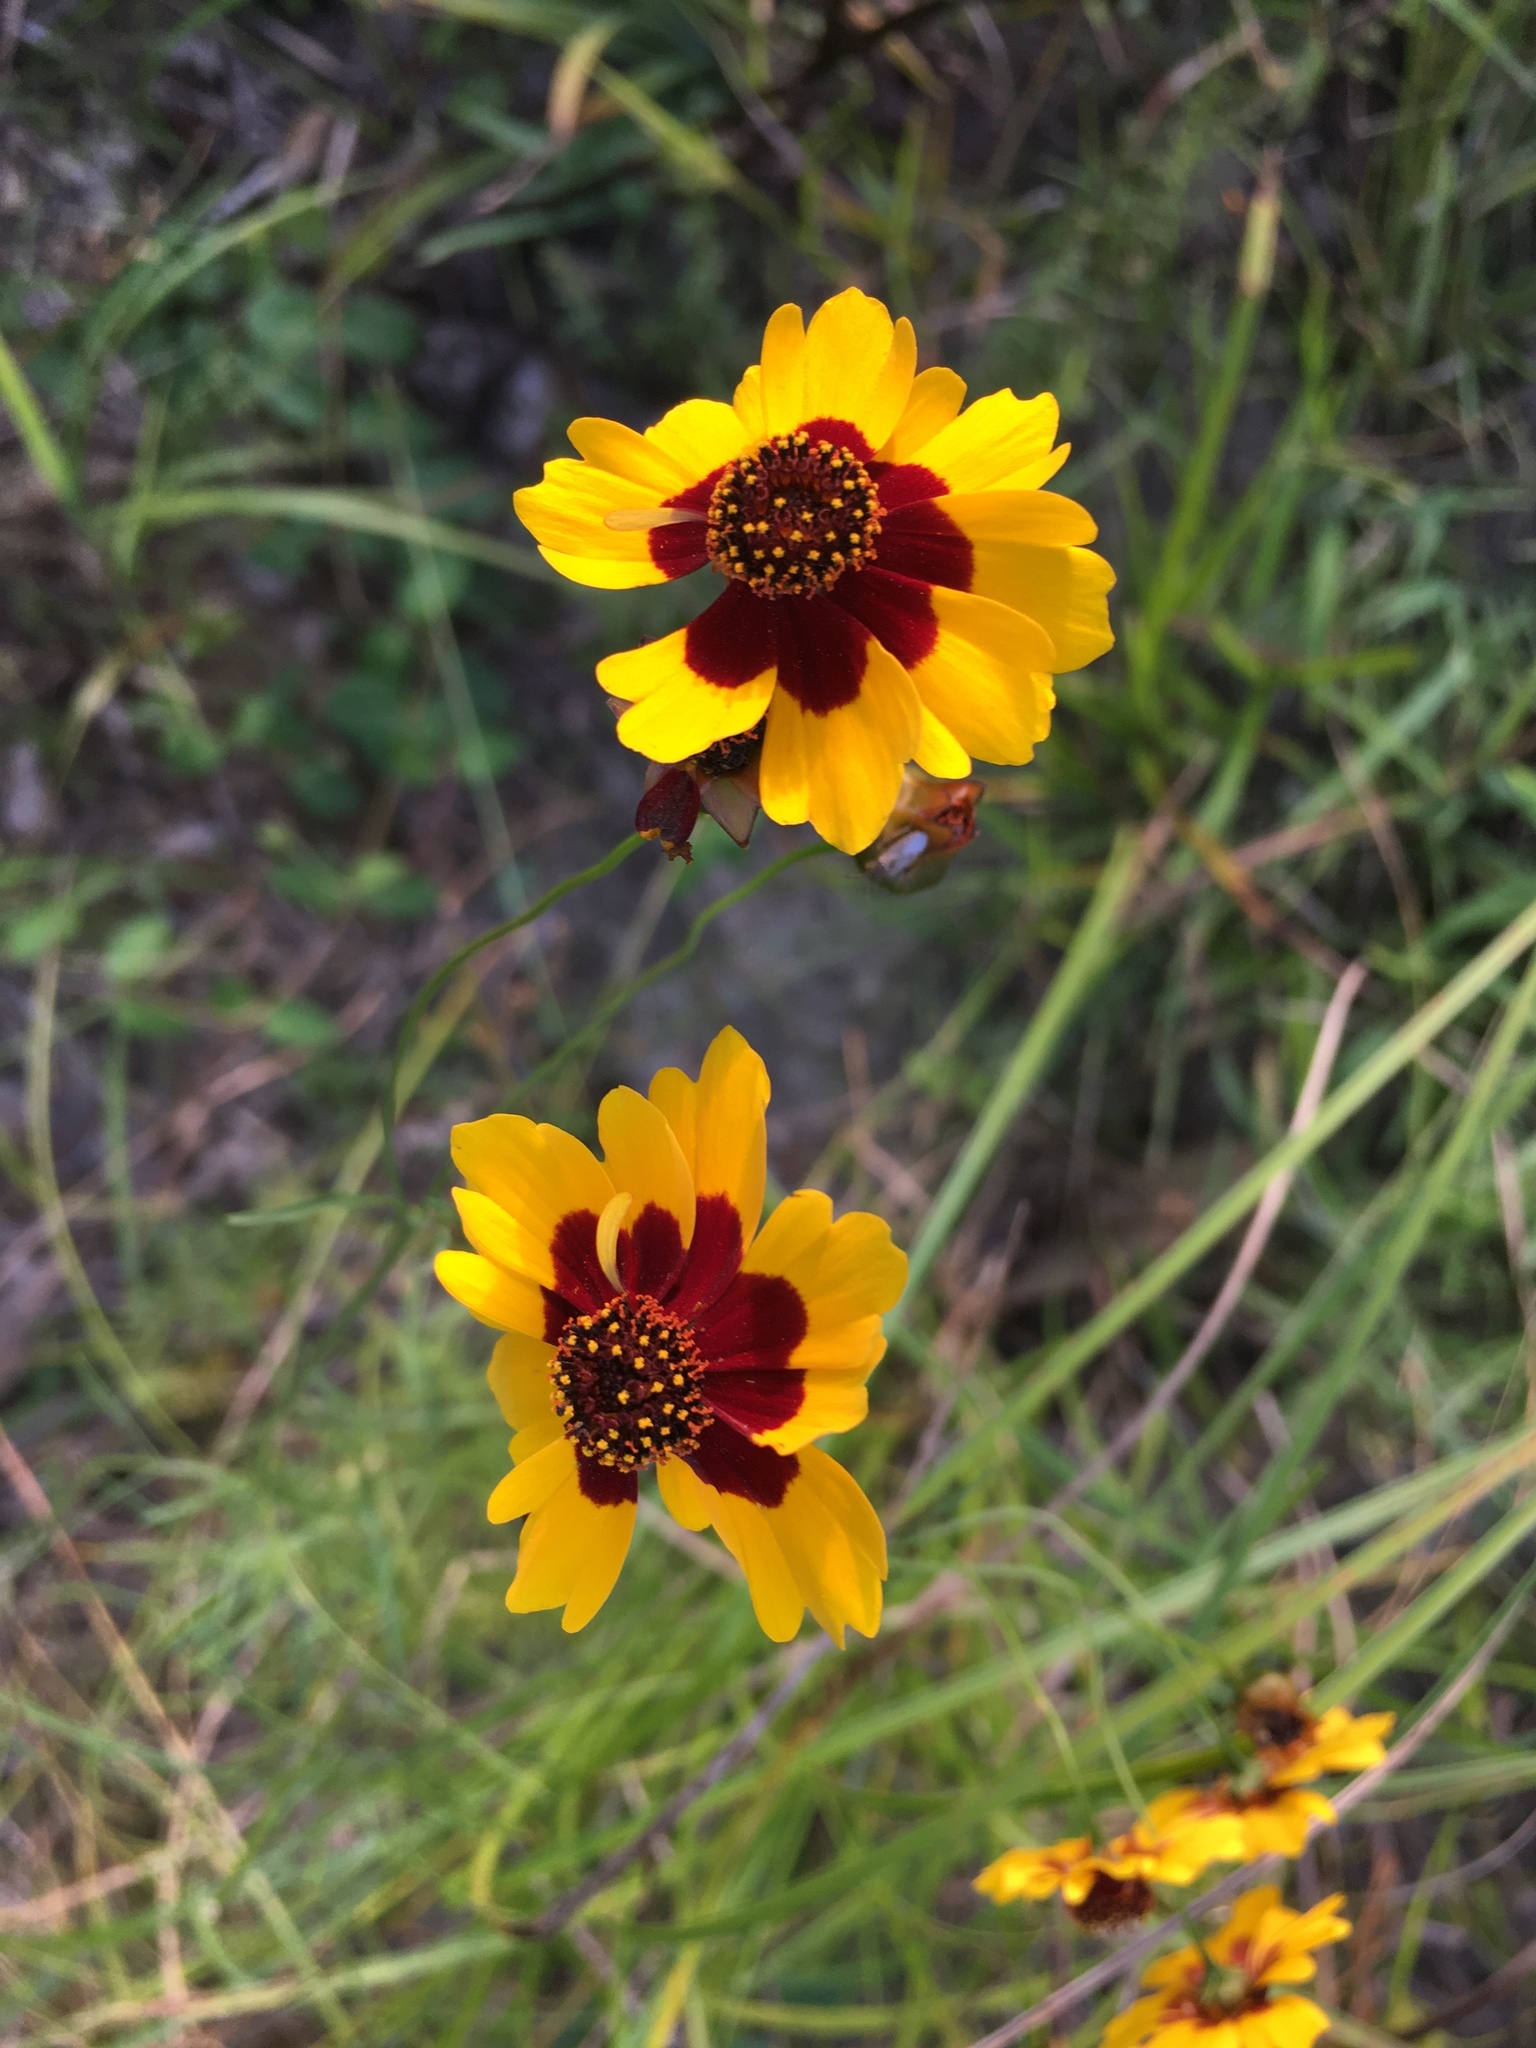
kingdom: Plantae
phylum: Tracheophyta
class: Magnoliopsida
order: Asterales
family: Asteraceae
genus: Coreopsis
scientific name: Coreopsis tinctoria
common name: Garden tickseed
